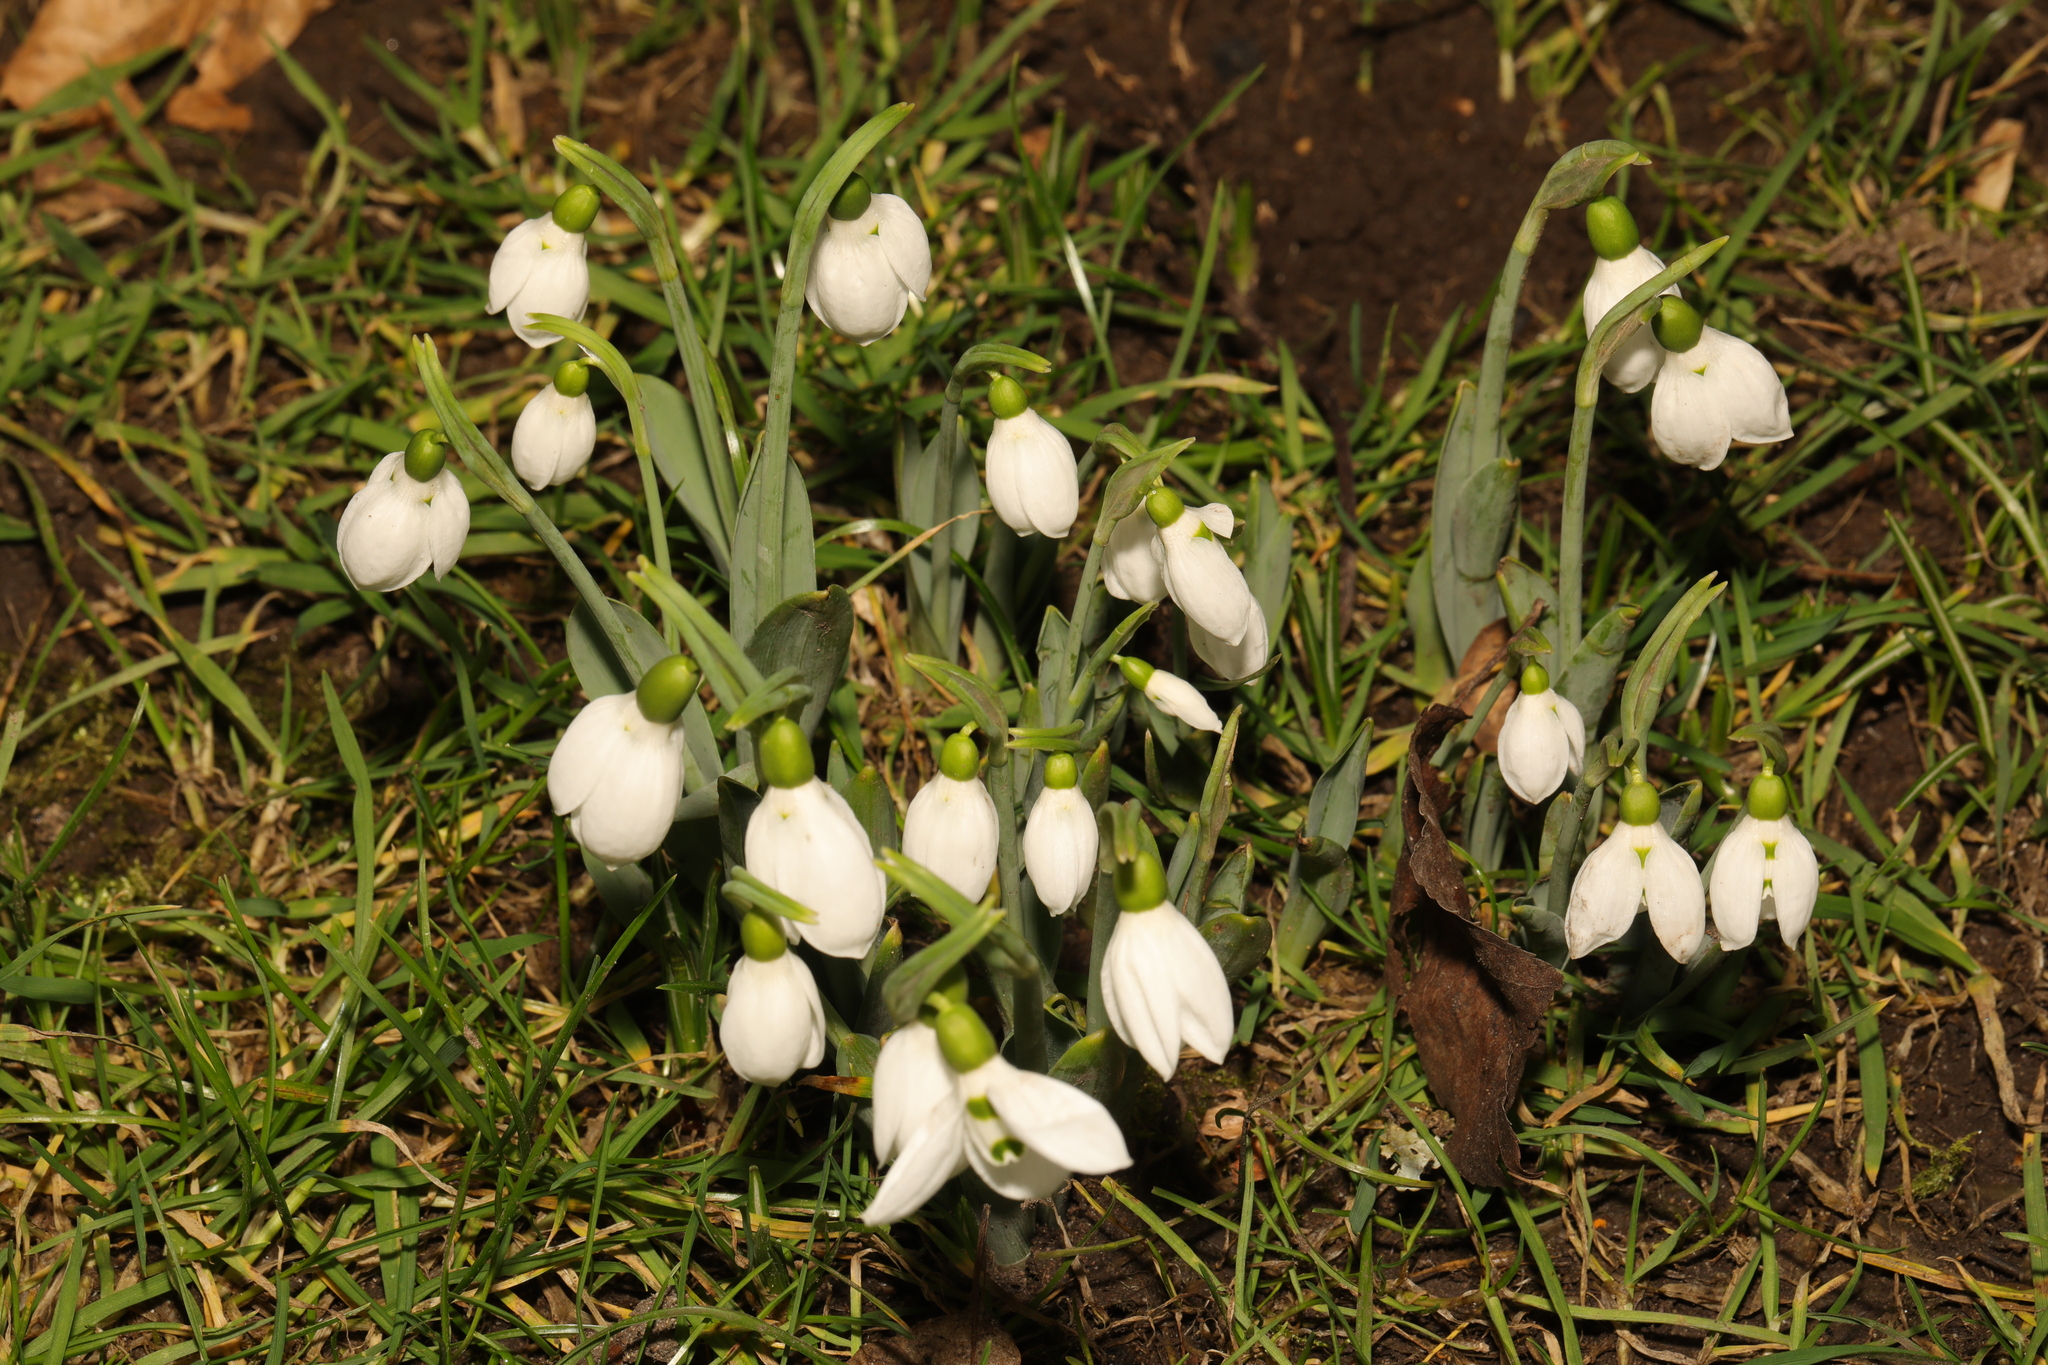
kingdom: Plantae
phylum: Tracheophyta
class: Liliopsida
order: Asparagales
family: Amaryllidaceae
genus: Galanthus
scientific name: Galanthus elwesii
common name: Greater snowdrop
